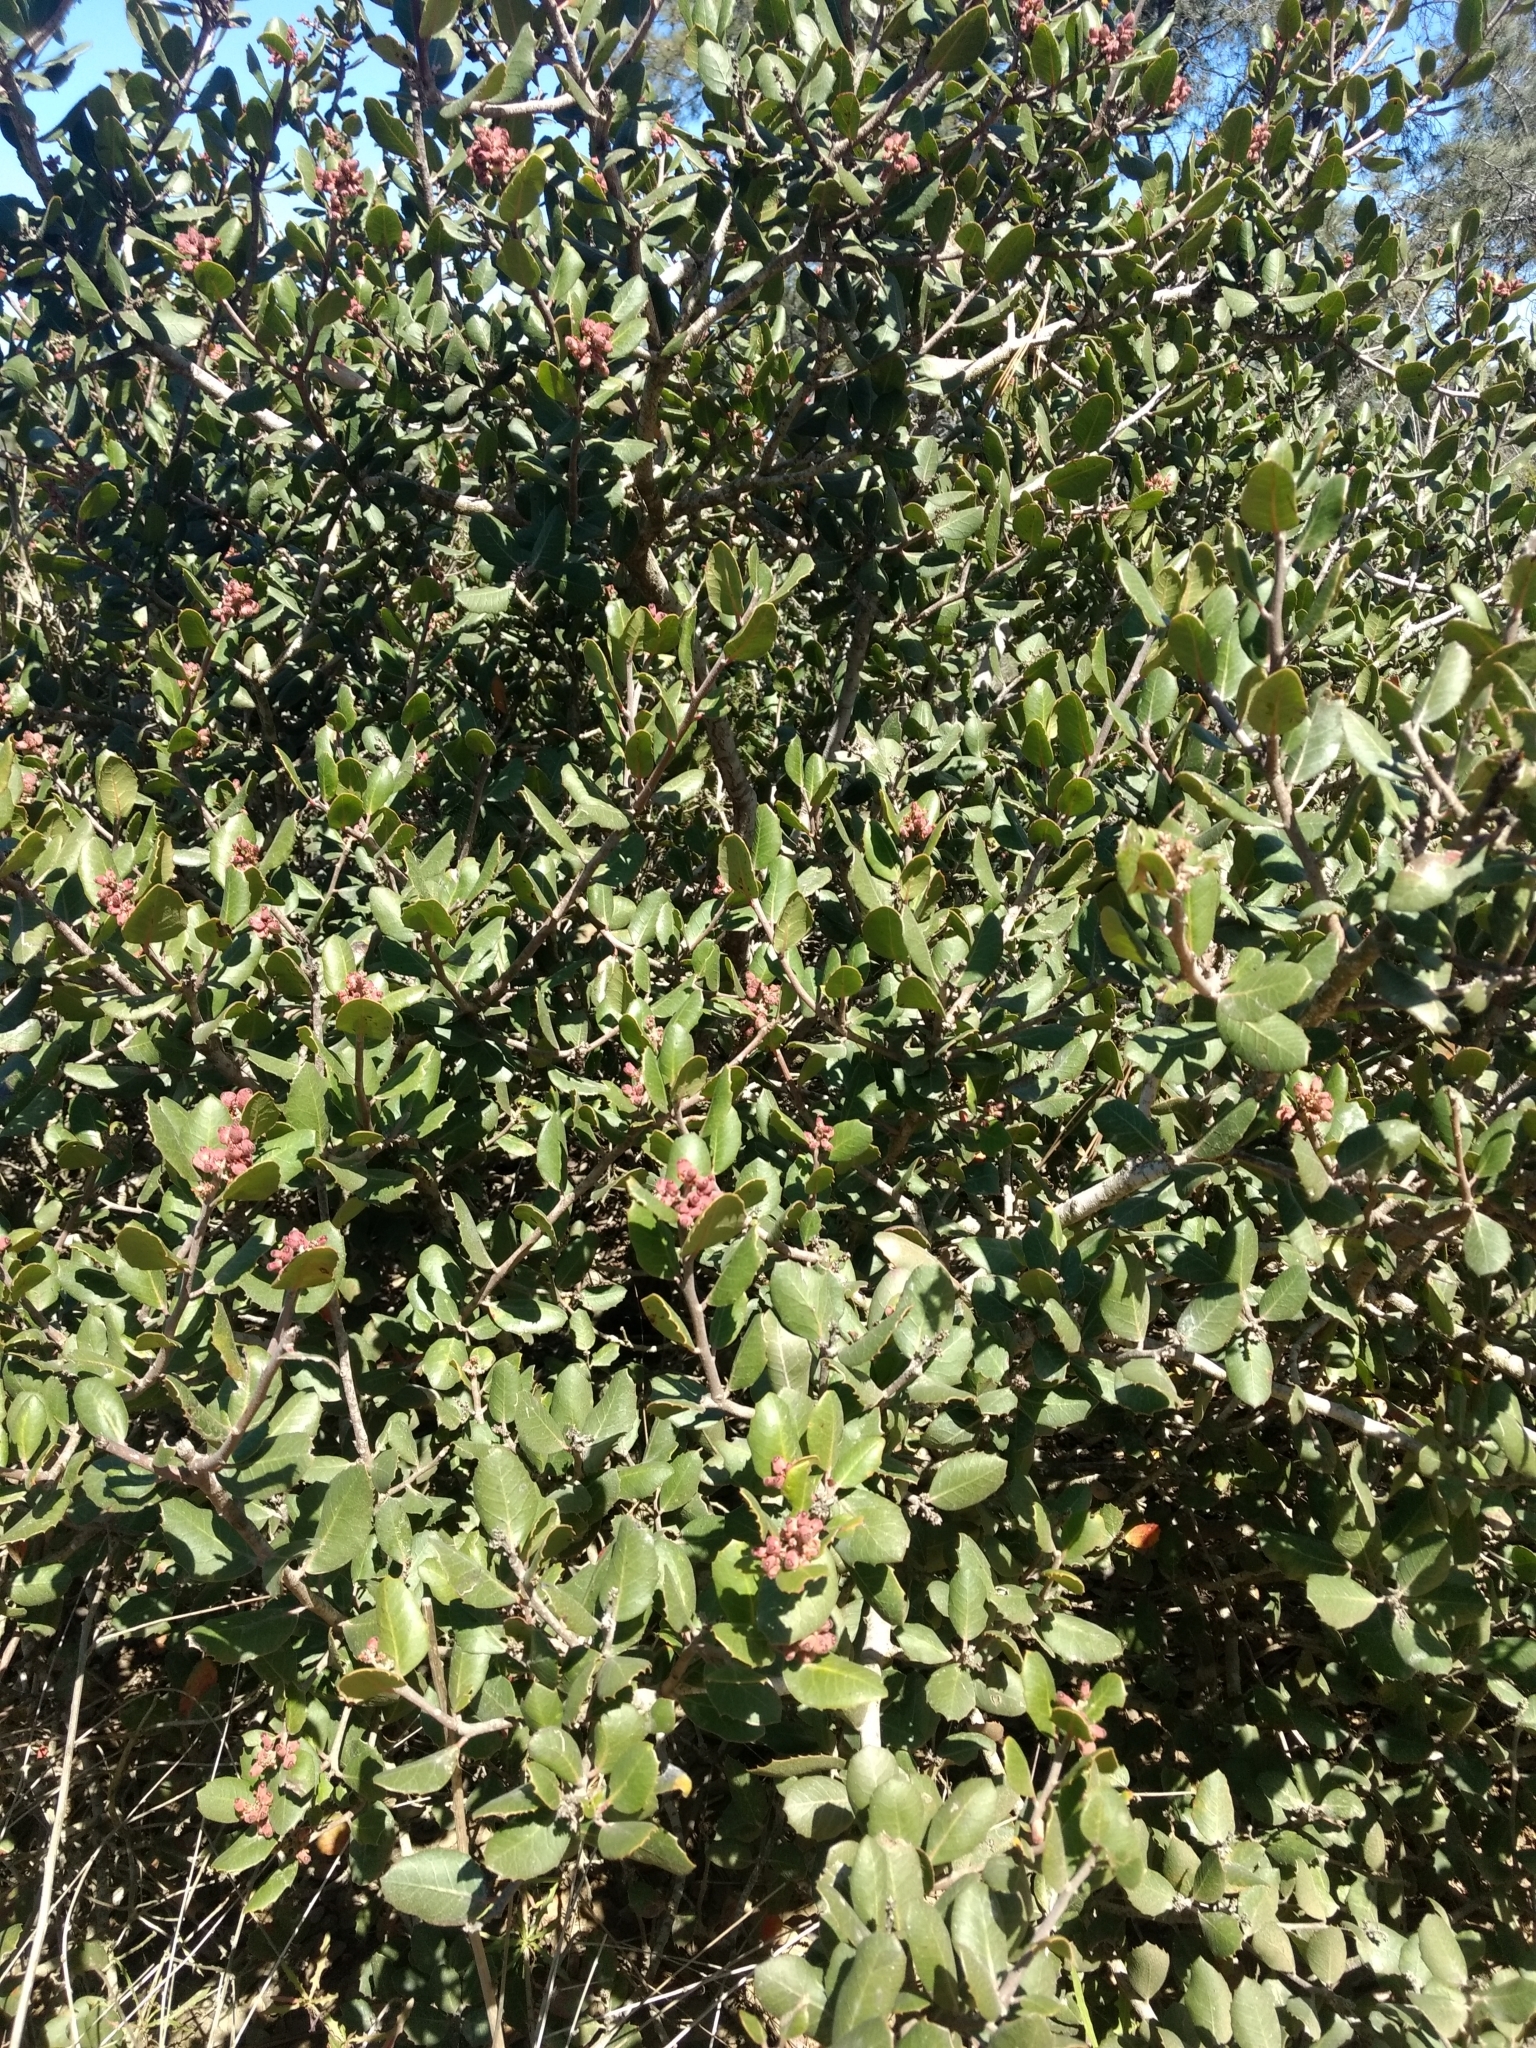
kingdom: Plantae
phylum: Tracheophyta
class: Magnoliopsida
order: Sapindales
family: Anacardiaceae
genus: Rhus
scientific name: Rhus integrifolia
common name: Lemonade sumac
